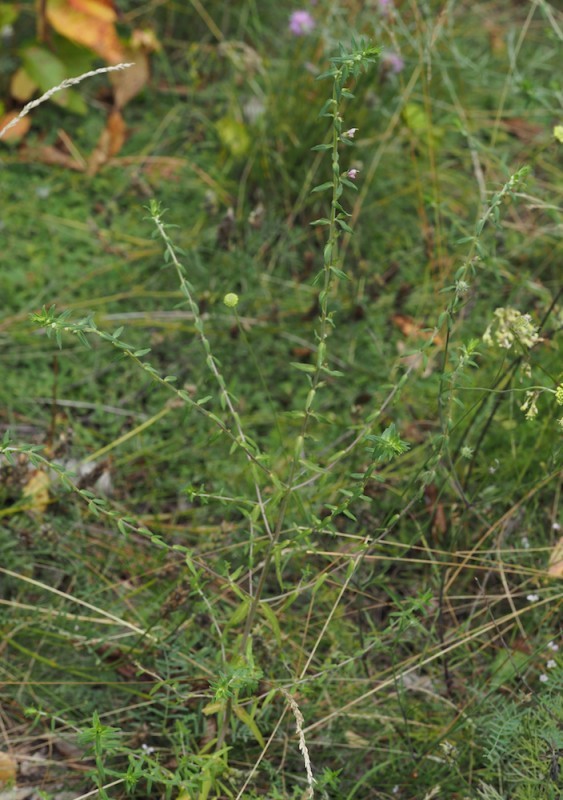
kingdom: Plantae
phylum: Tracheophyta
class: Magnoliopsida
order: Lamiales
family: Orobanchaceae
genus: Odontites
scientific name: Odontites vulgaris
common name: Broomrape
